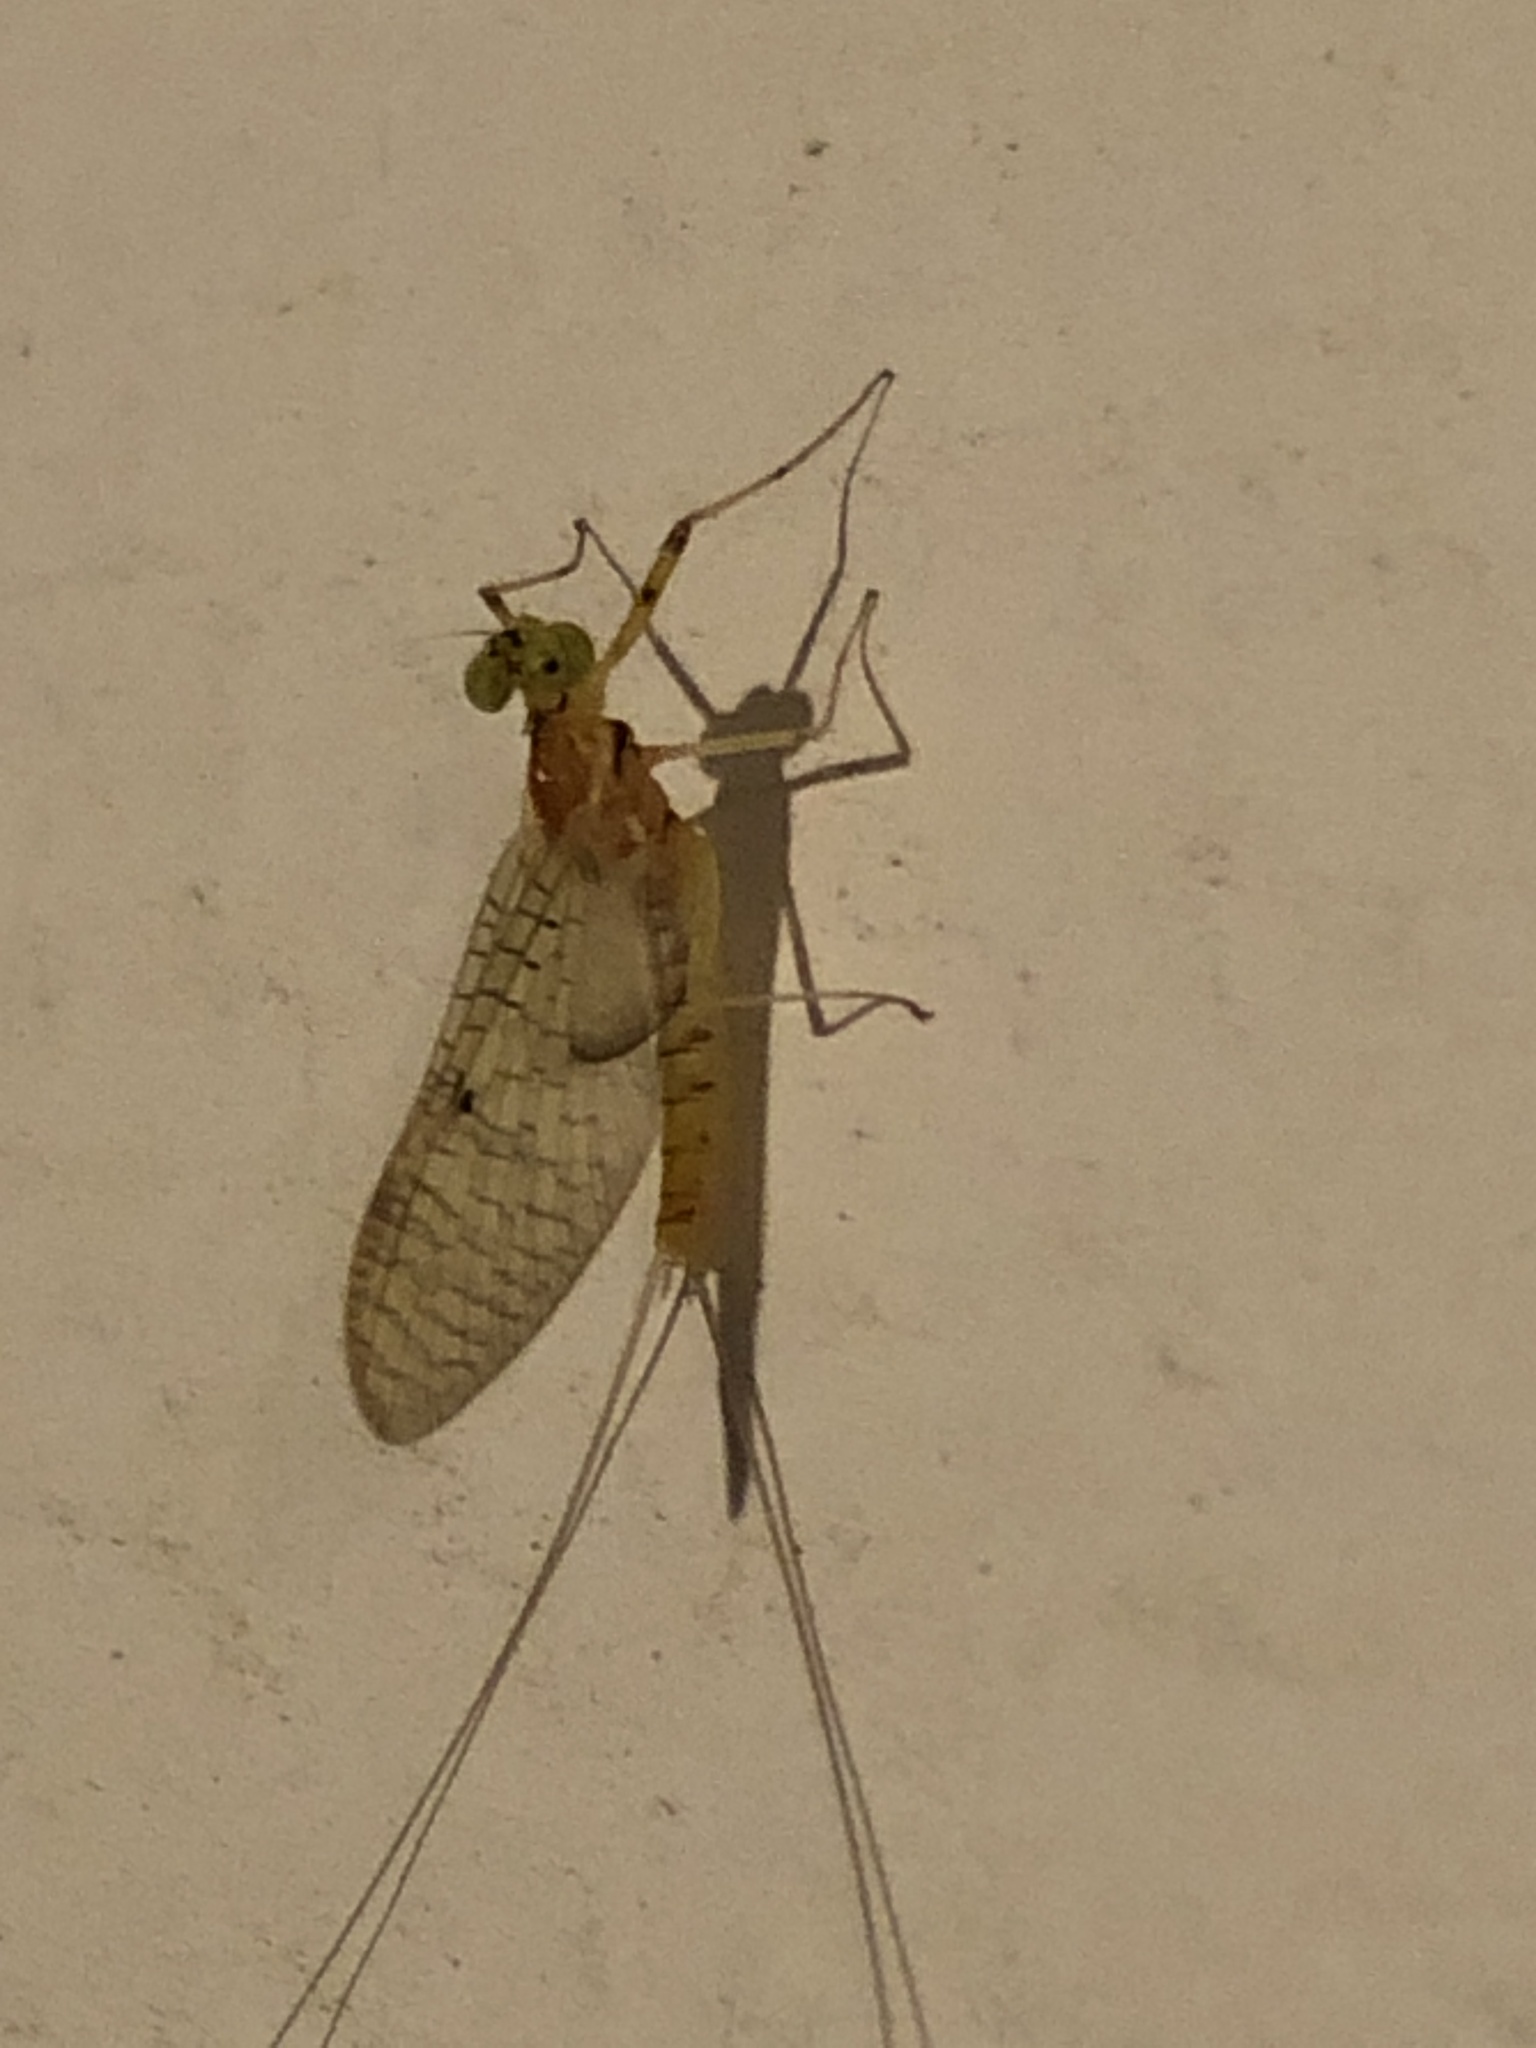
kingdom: Animalia
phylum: Arthropoda
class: Insecta
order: Ephemeroptera
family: Heptageniidae
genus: Stenacron
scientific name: Stenacron interpunctatum
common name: Orange cahill
